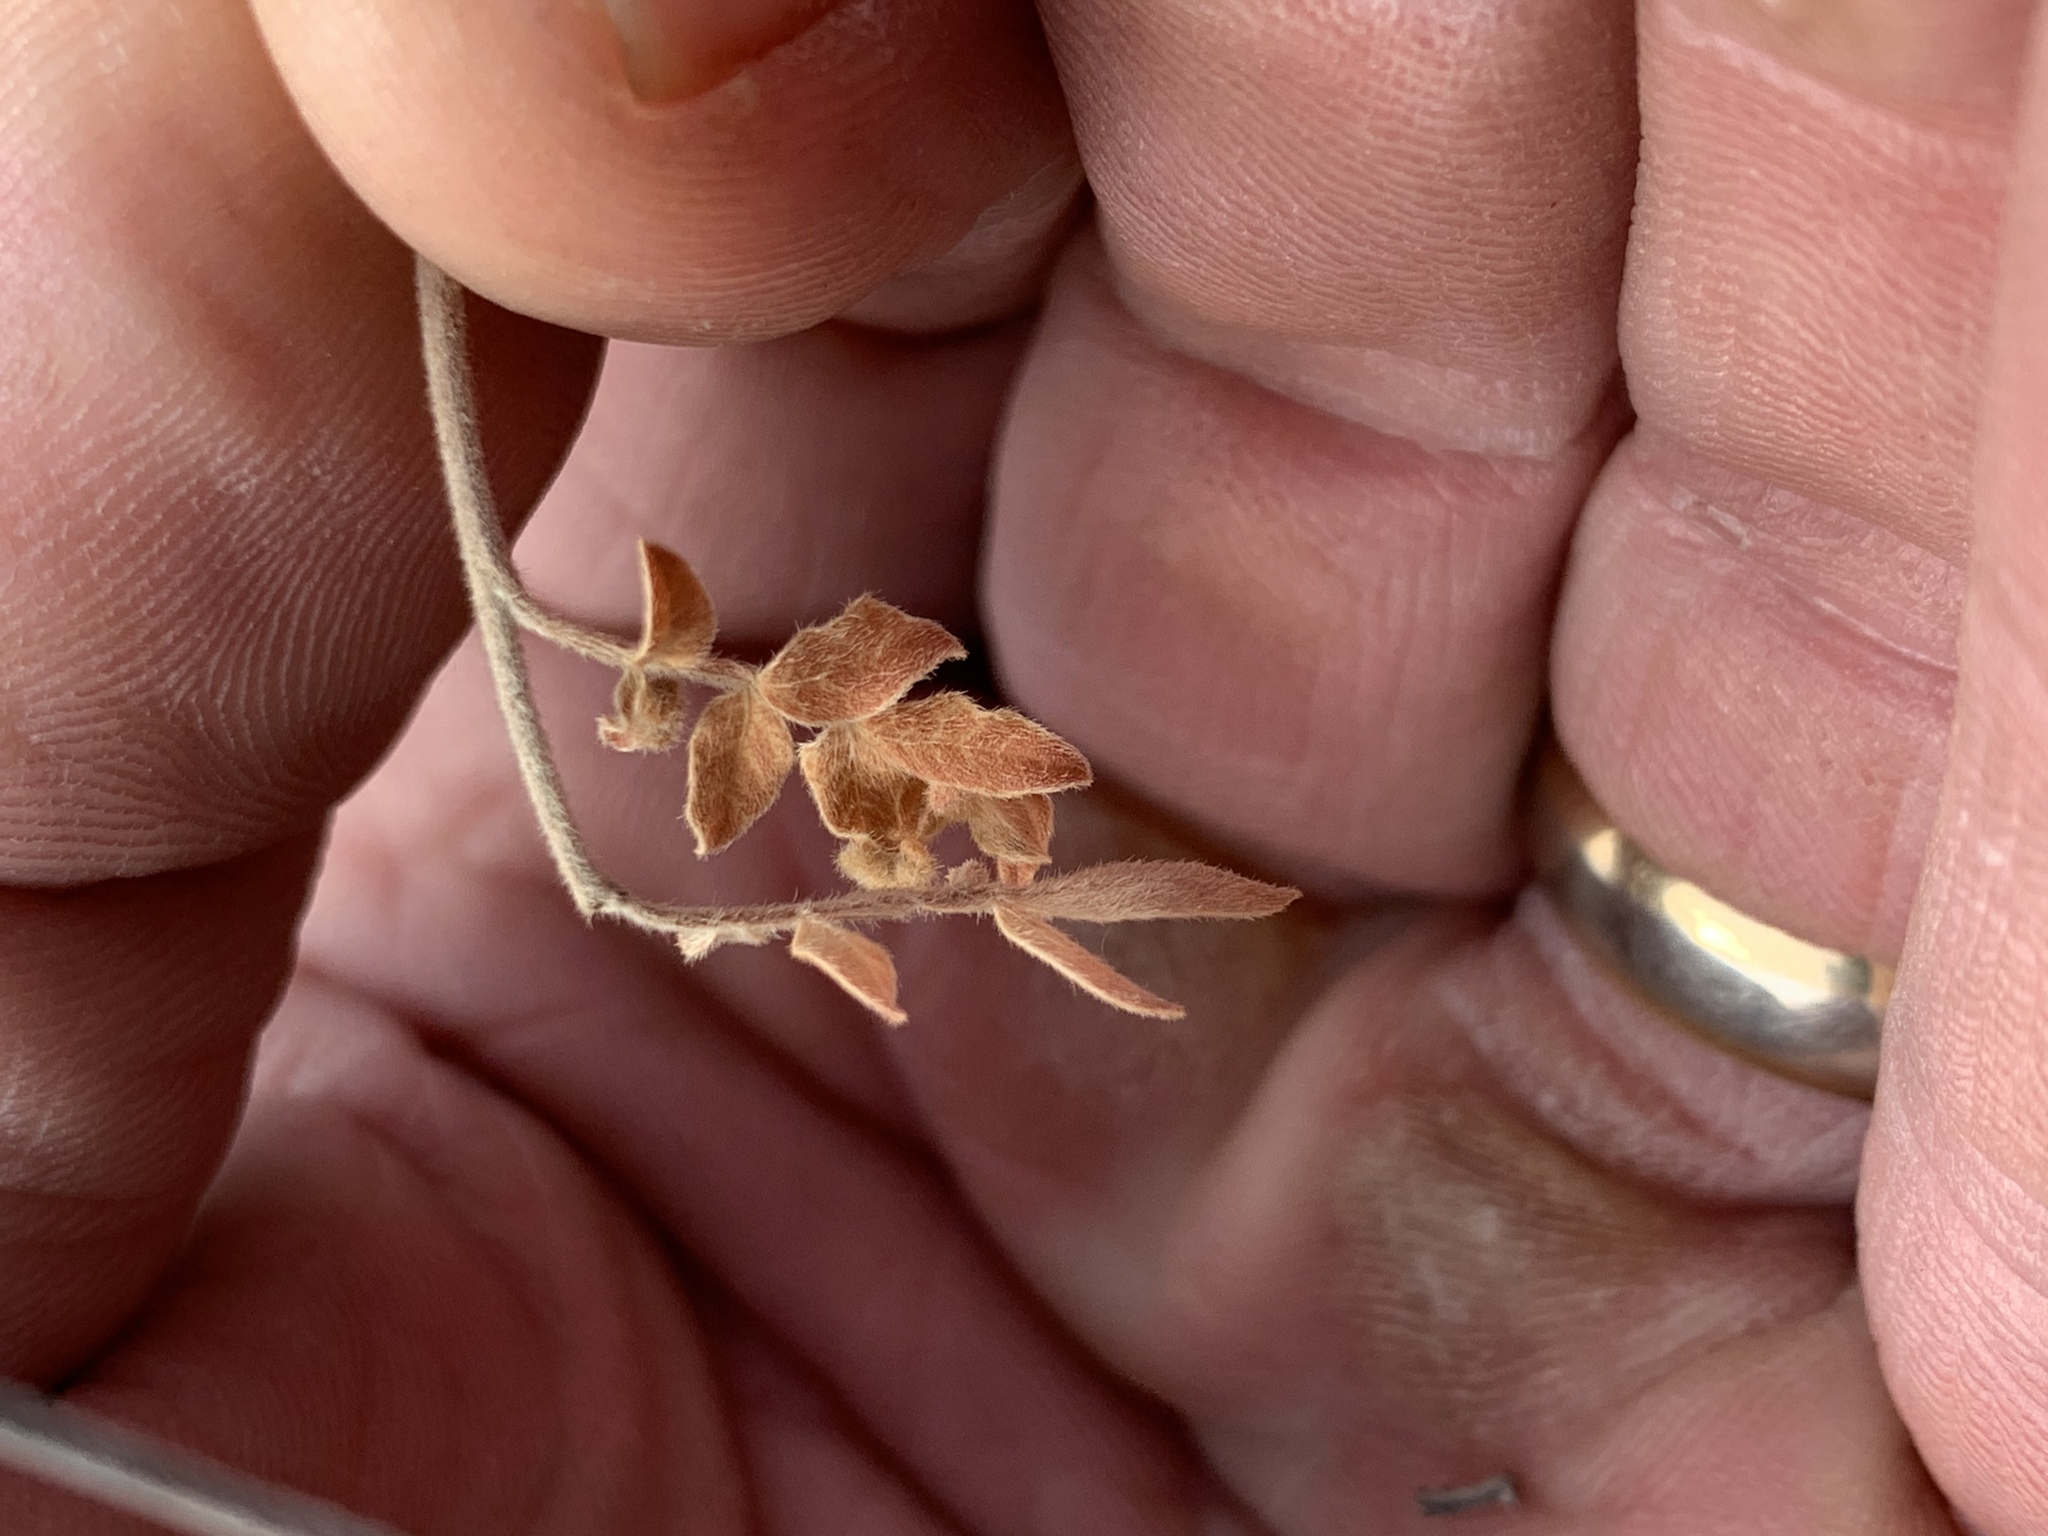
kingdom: Plantae
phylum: Tracheophyta
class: Magnoliopsida
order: Sapindales
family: Anacardiaceae
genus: Rhus
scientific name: Rhus microphylla
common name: Desert sumac
